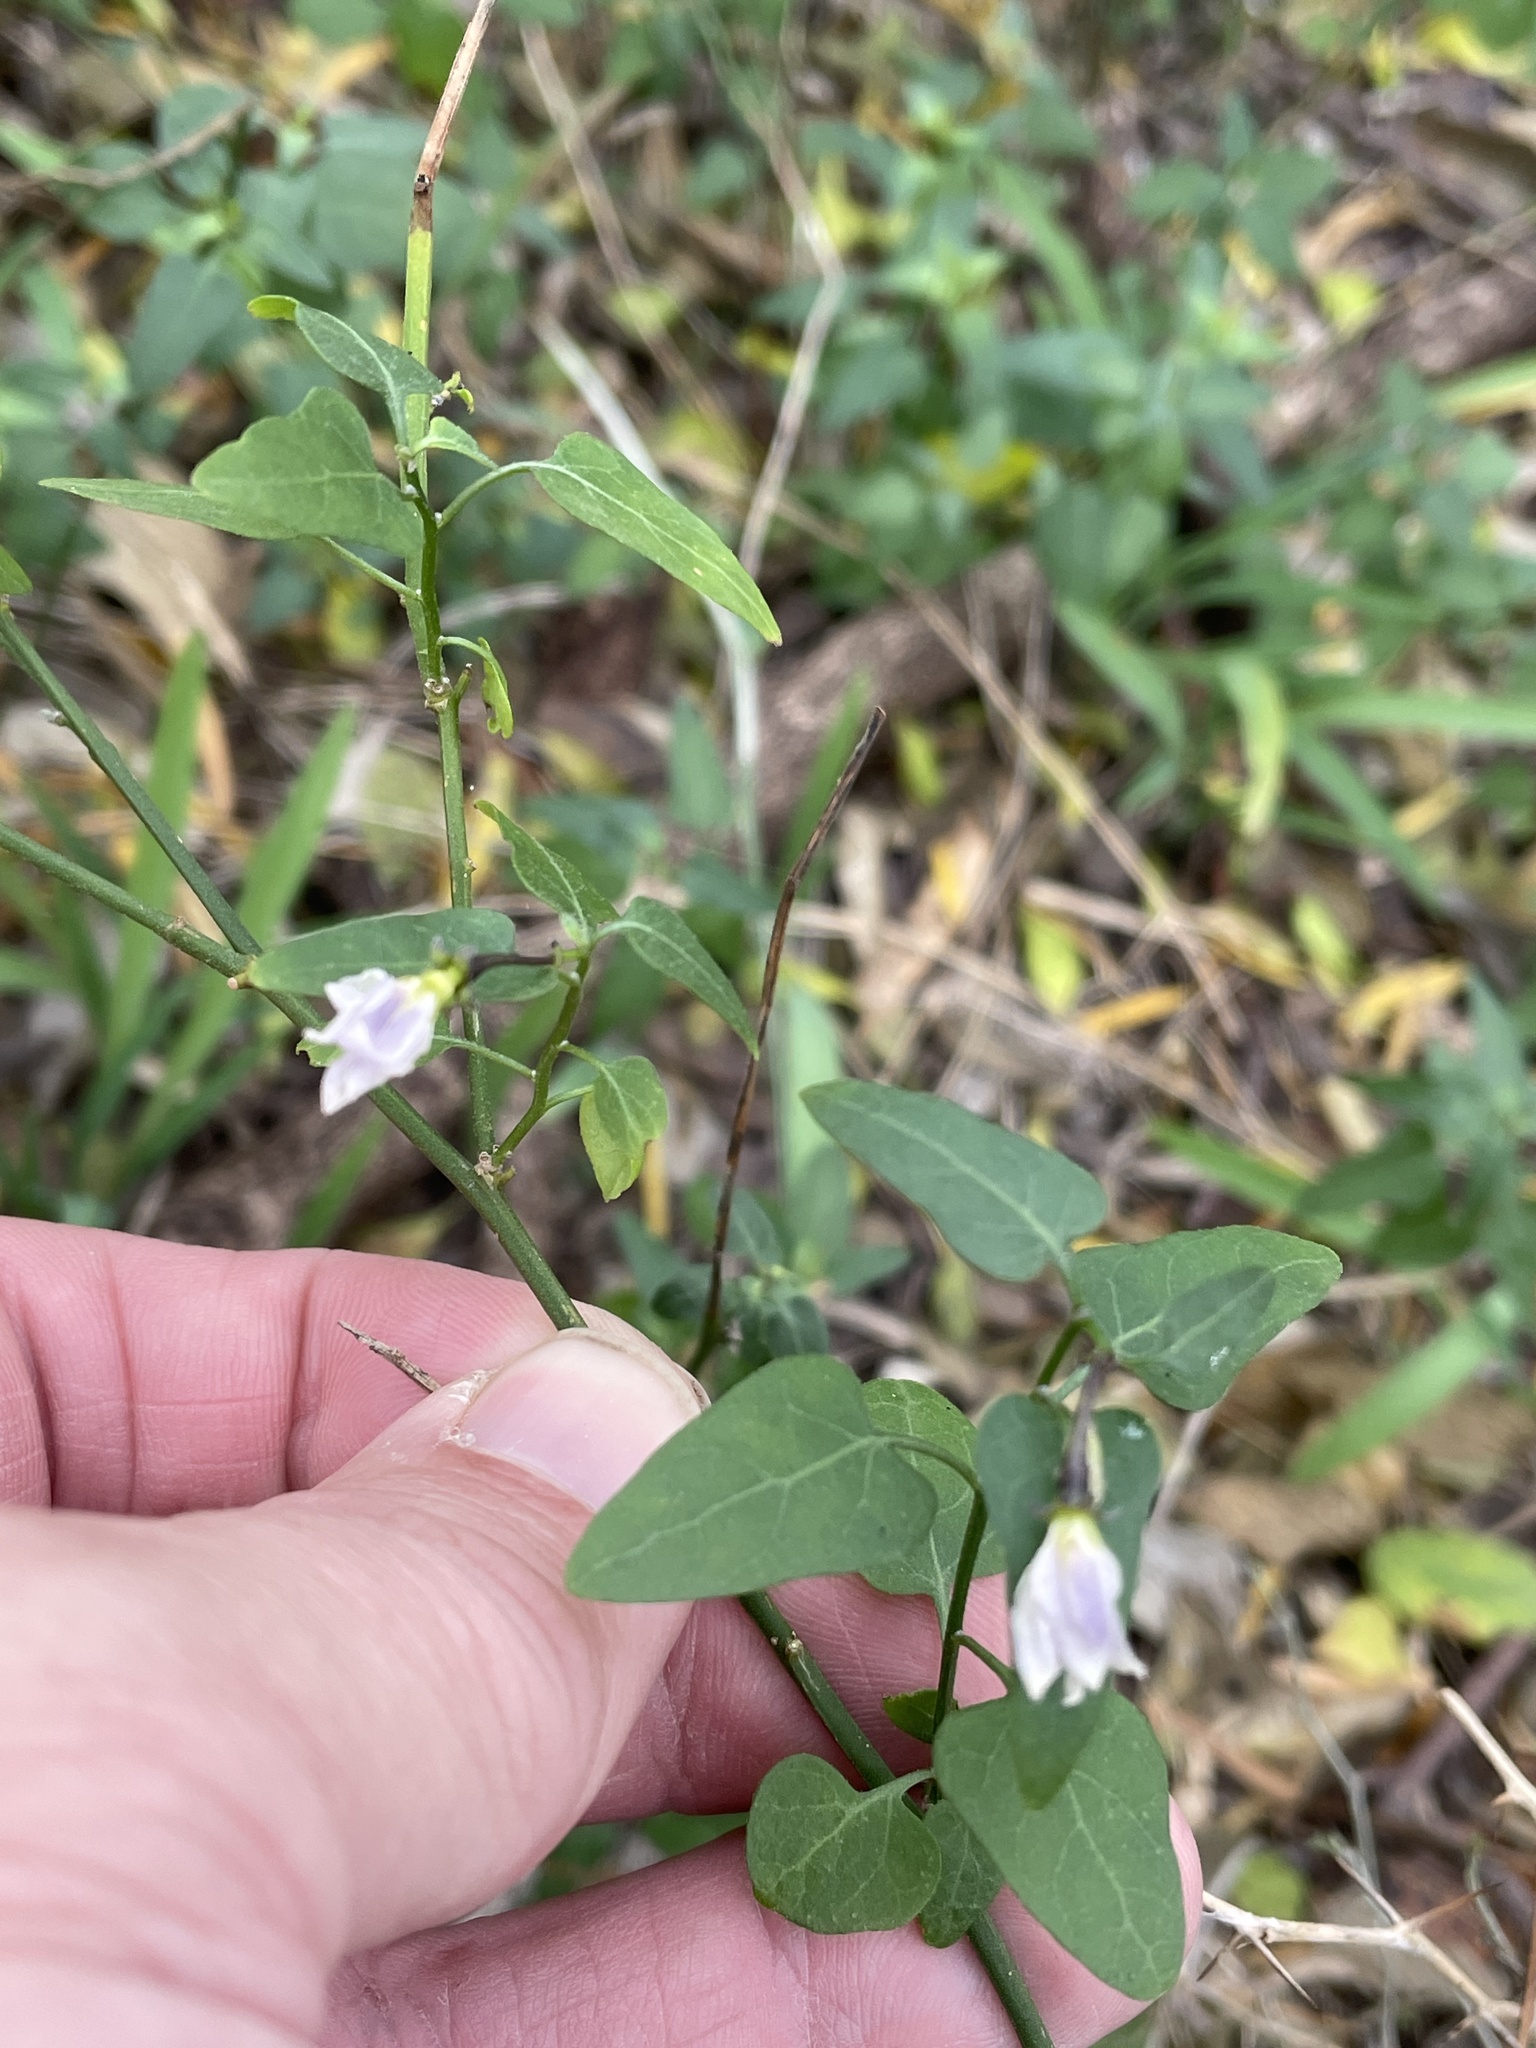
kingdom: Plantae
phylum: Tracheophyta
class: Magnoliopsida
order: Solanales
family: Solanaceae
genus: Solanum
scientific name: Solanum triquetrum
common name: Texas nightshade
